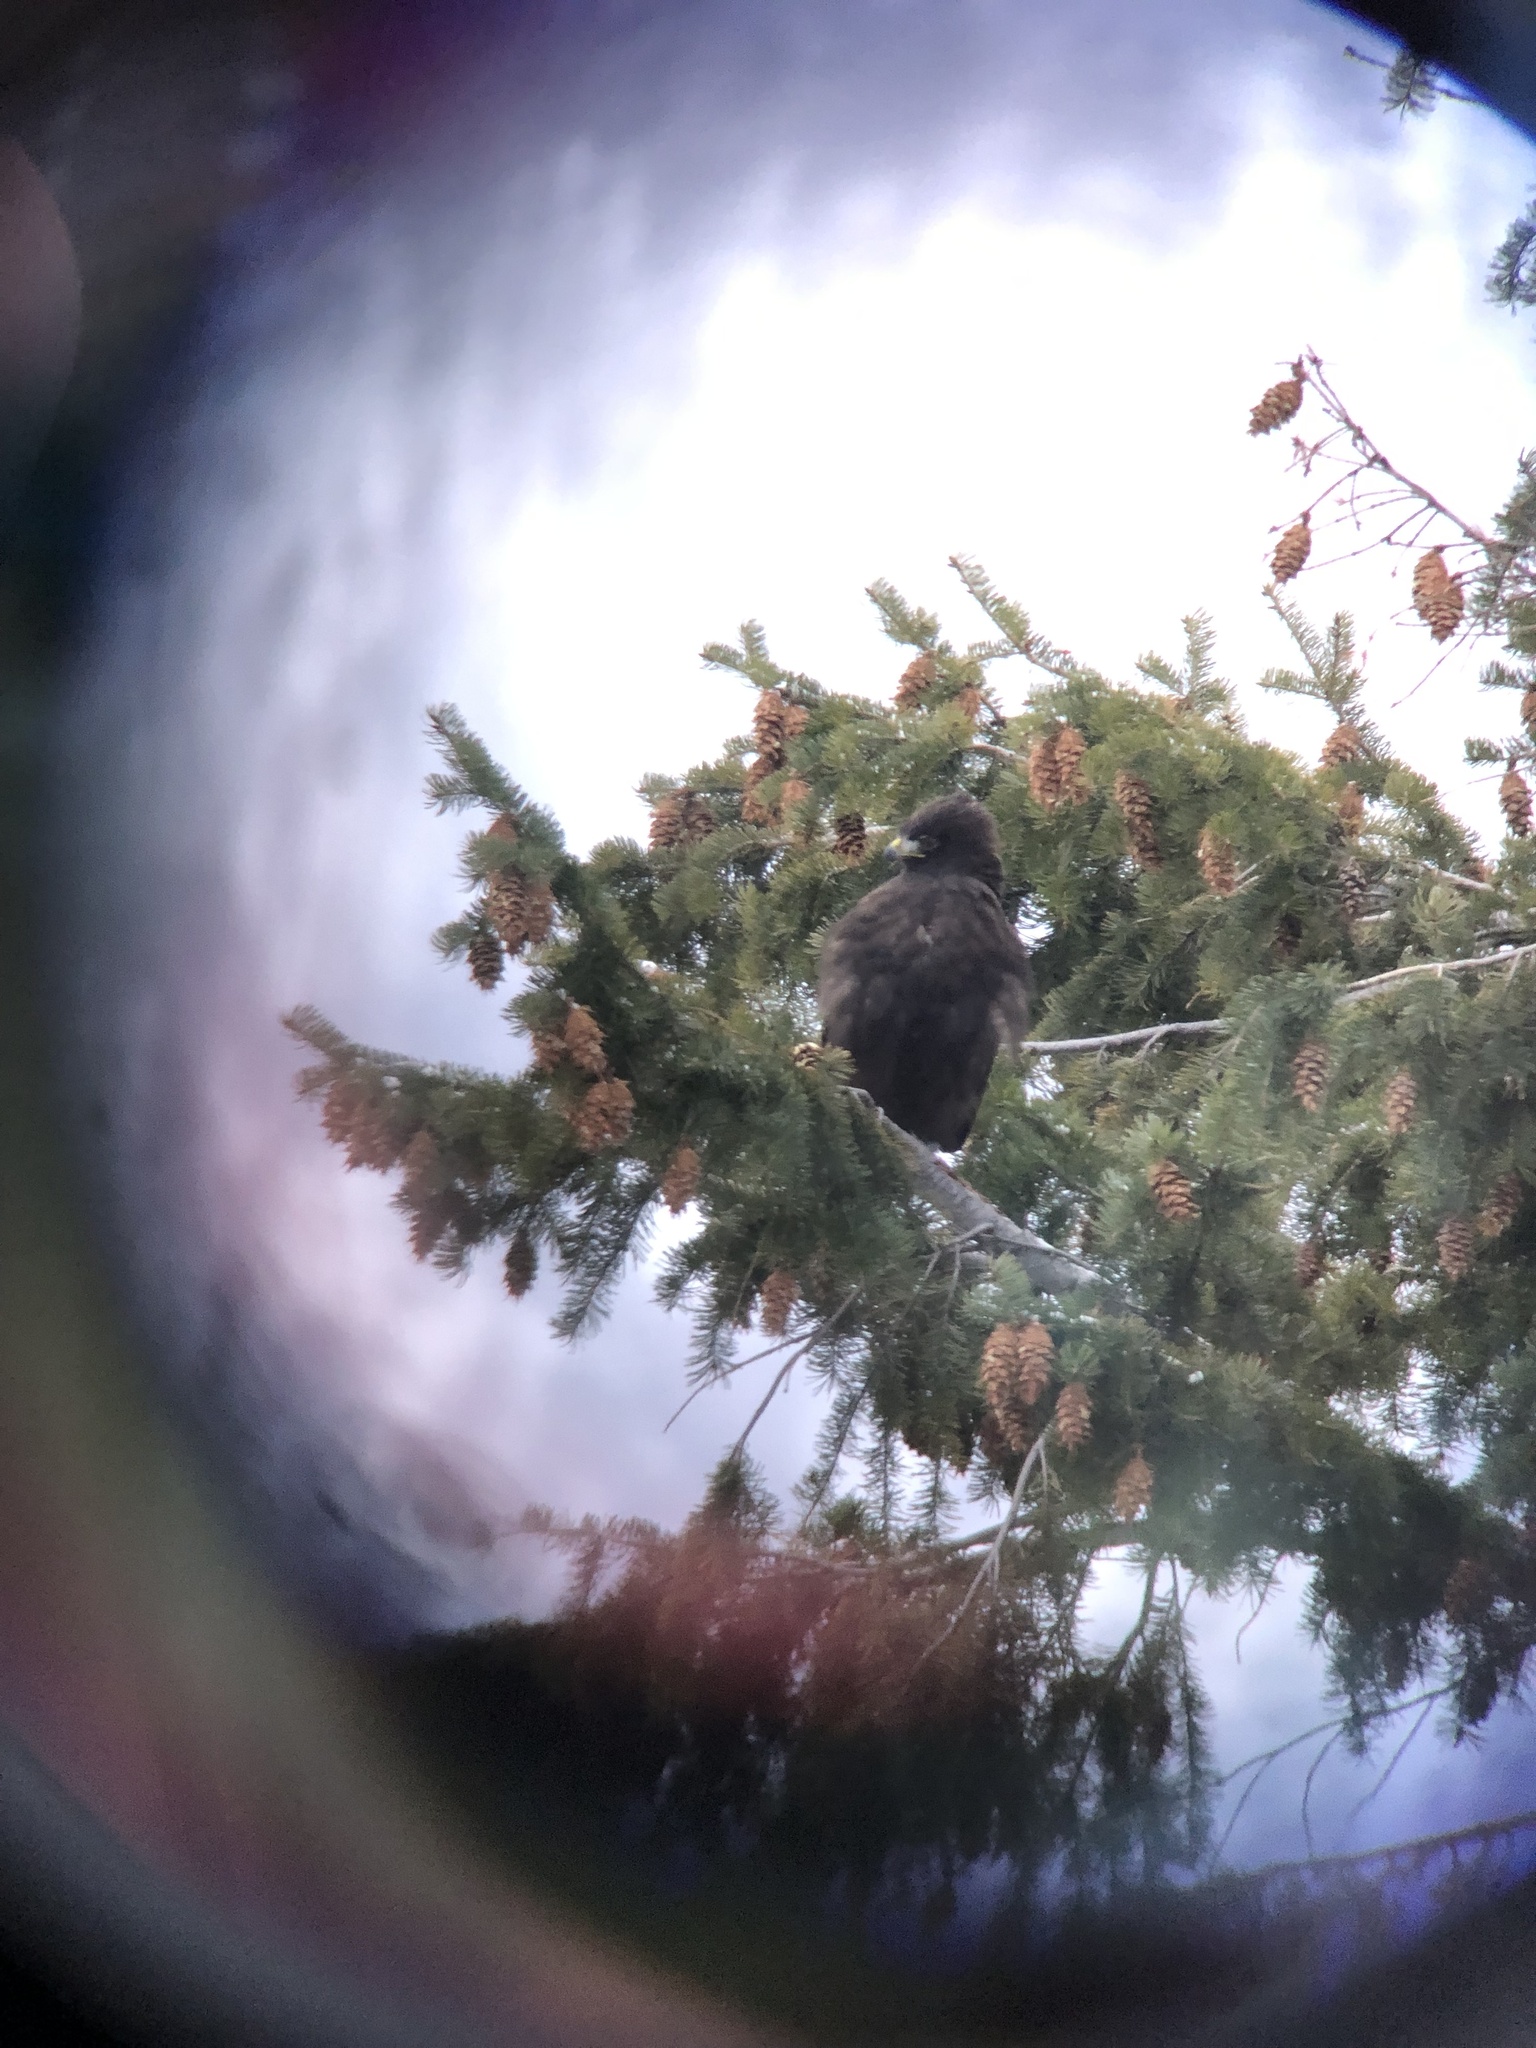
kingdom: Animalia
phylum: Chordata
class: Aves
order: Accipitriformes
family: Accipitridae
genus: Buteo
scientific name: Buteo lagopus
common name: Rough-legged buzzard
